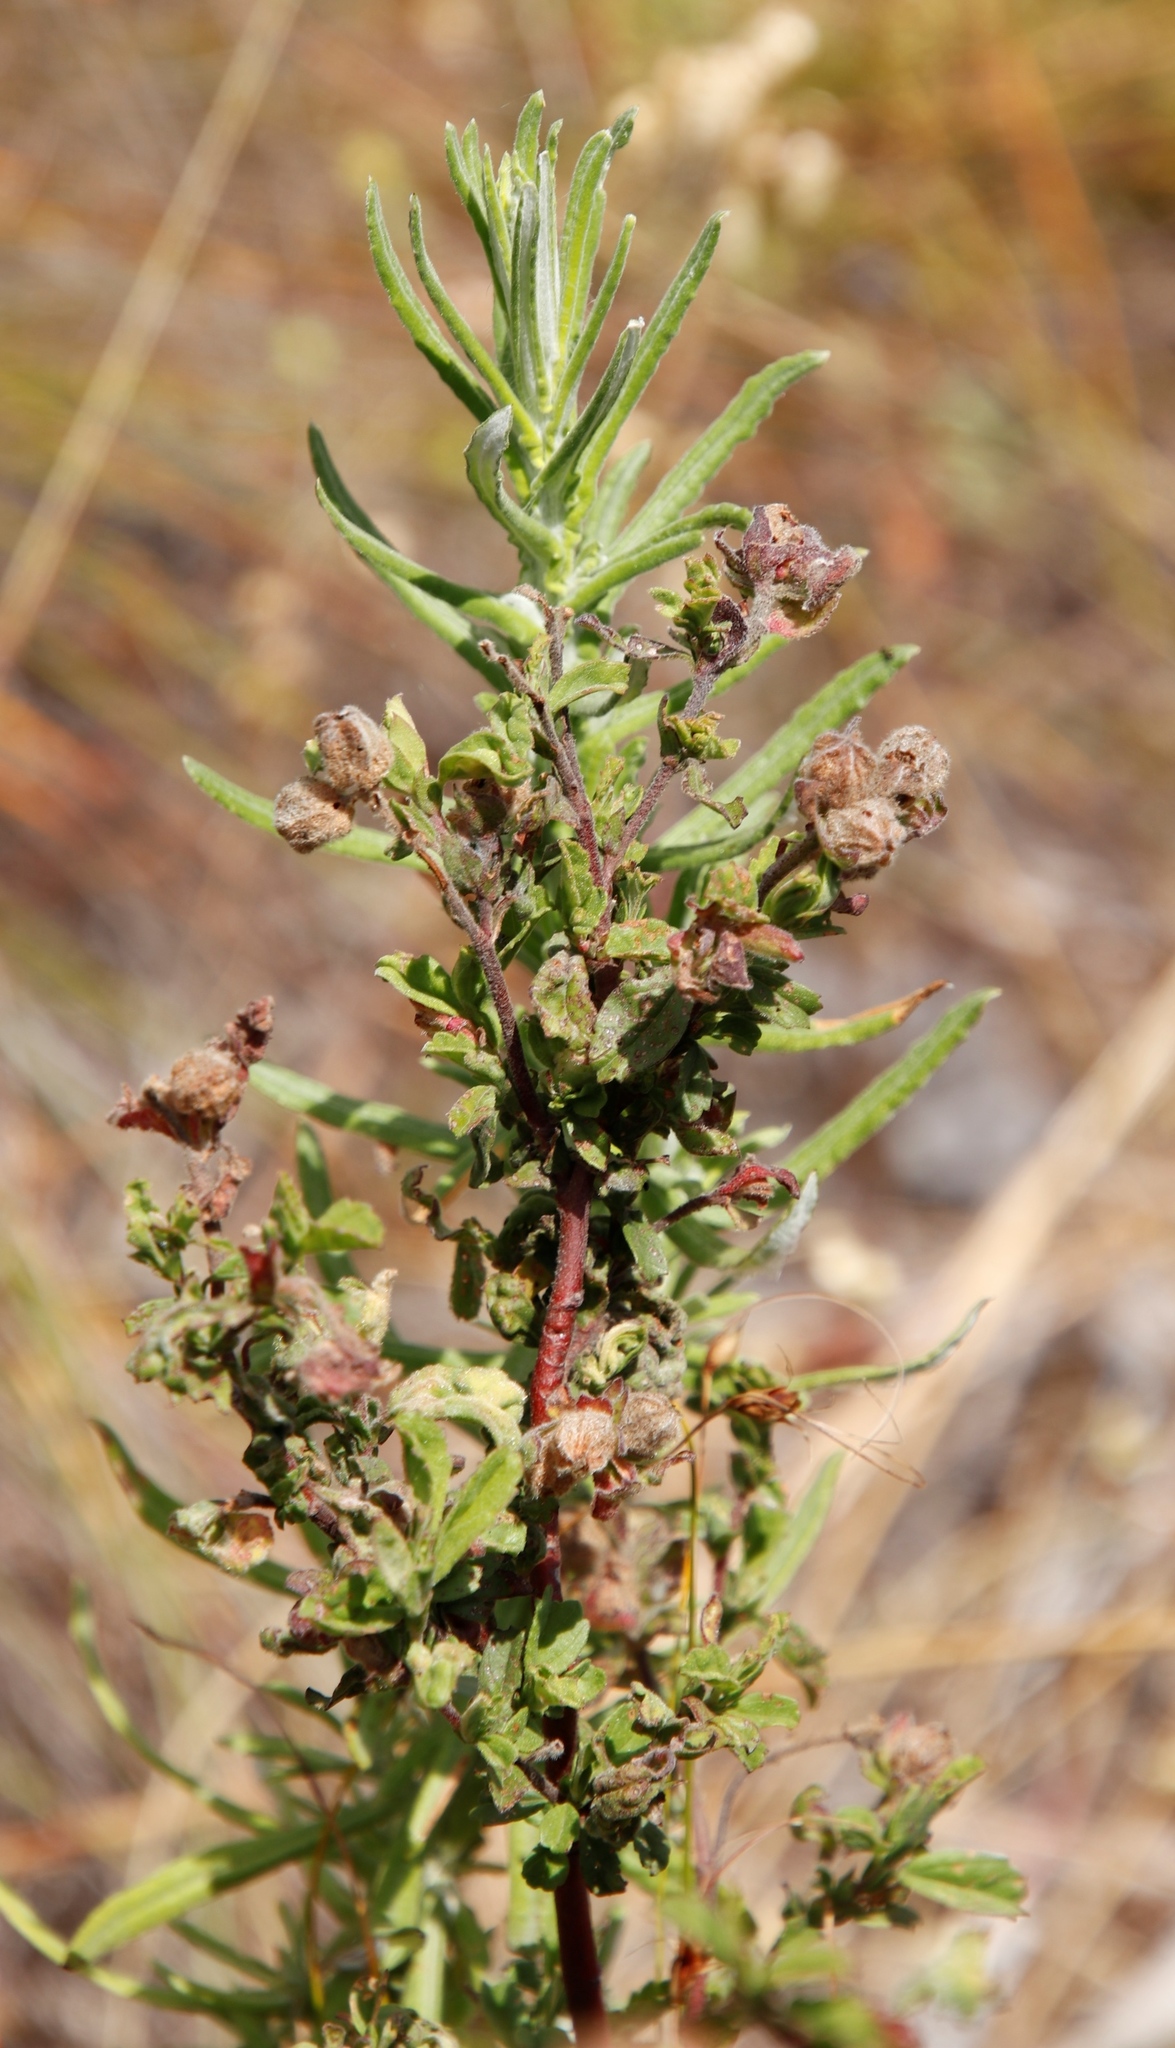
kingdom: Plantae
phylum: Tracheophyta
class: Magnoliopsida
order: Malvales
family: Malvaceae
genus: Hermannia
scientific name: Hermannia hyssopifolia
